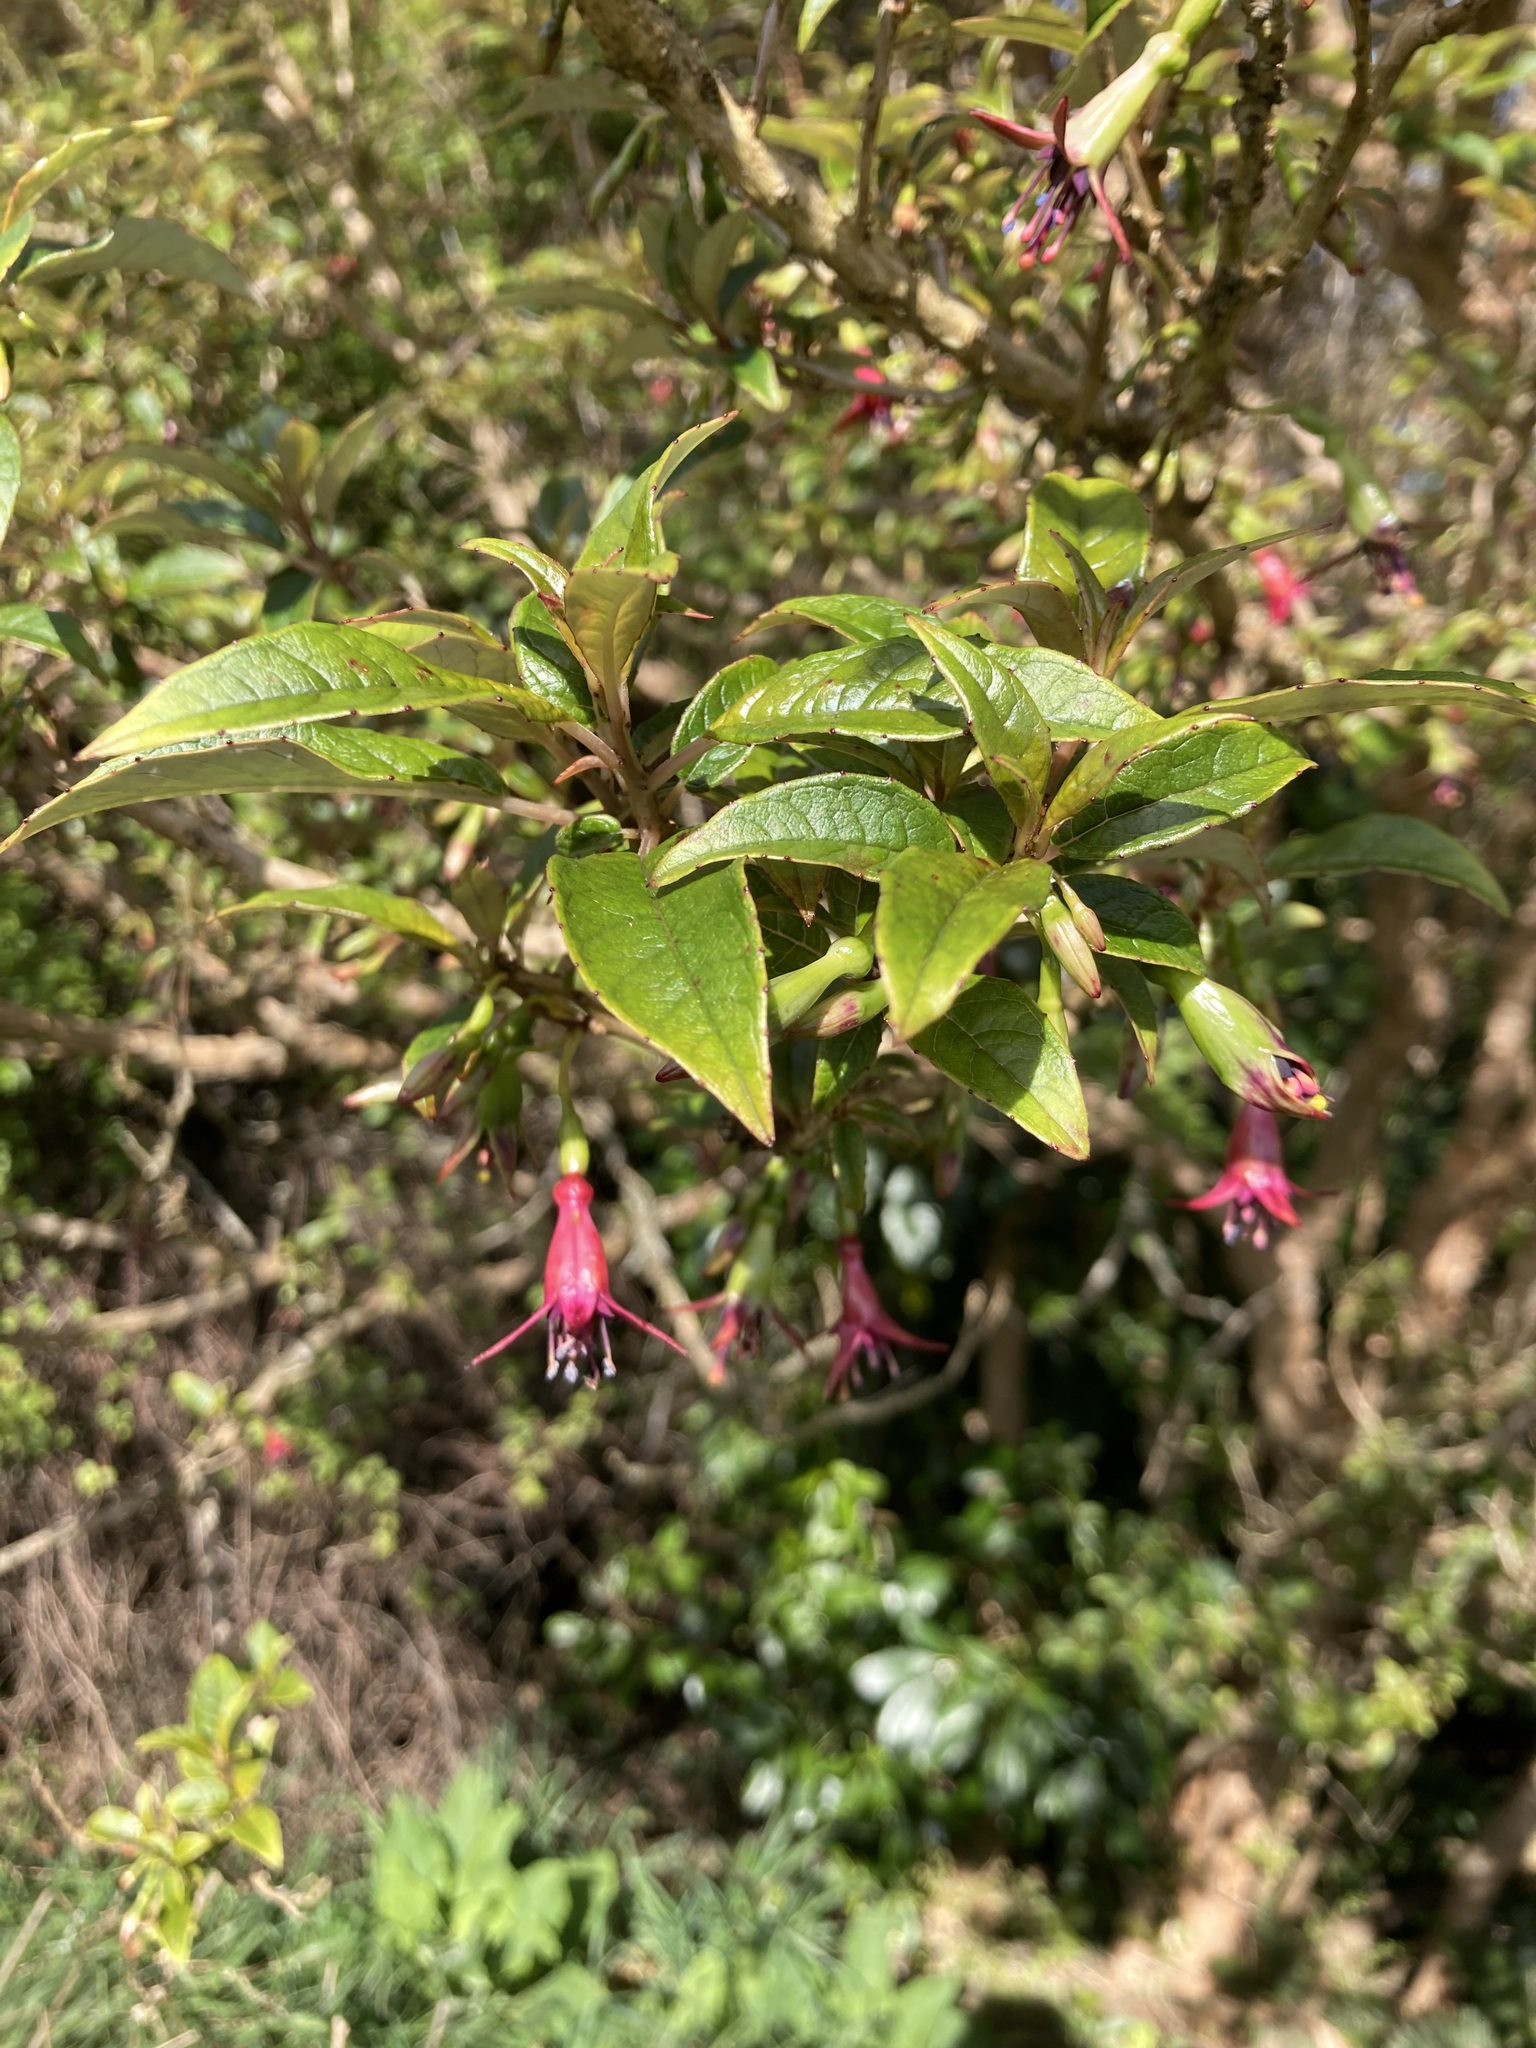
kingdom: Plantae
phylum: Tracheophyta
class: Magnoliopsida
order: Myrtales
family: Onagraceae
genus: Fuchsia
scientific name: Fuchsia excorticata
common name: Tree fuchsia
